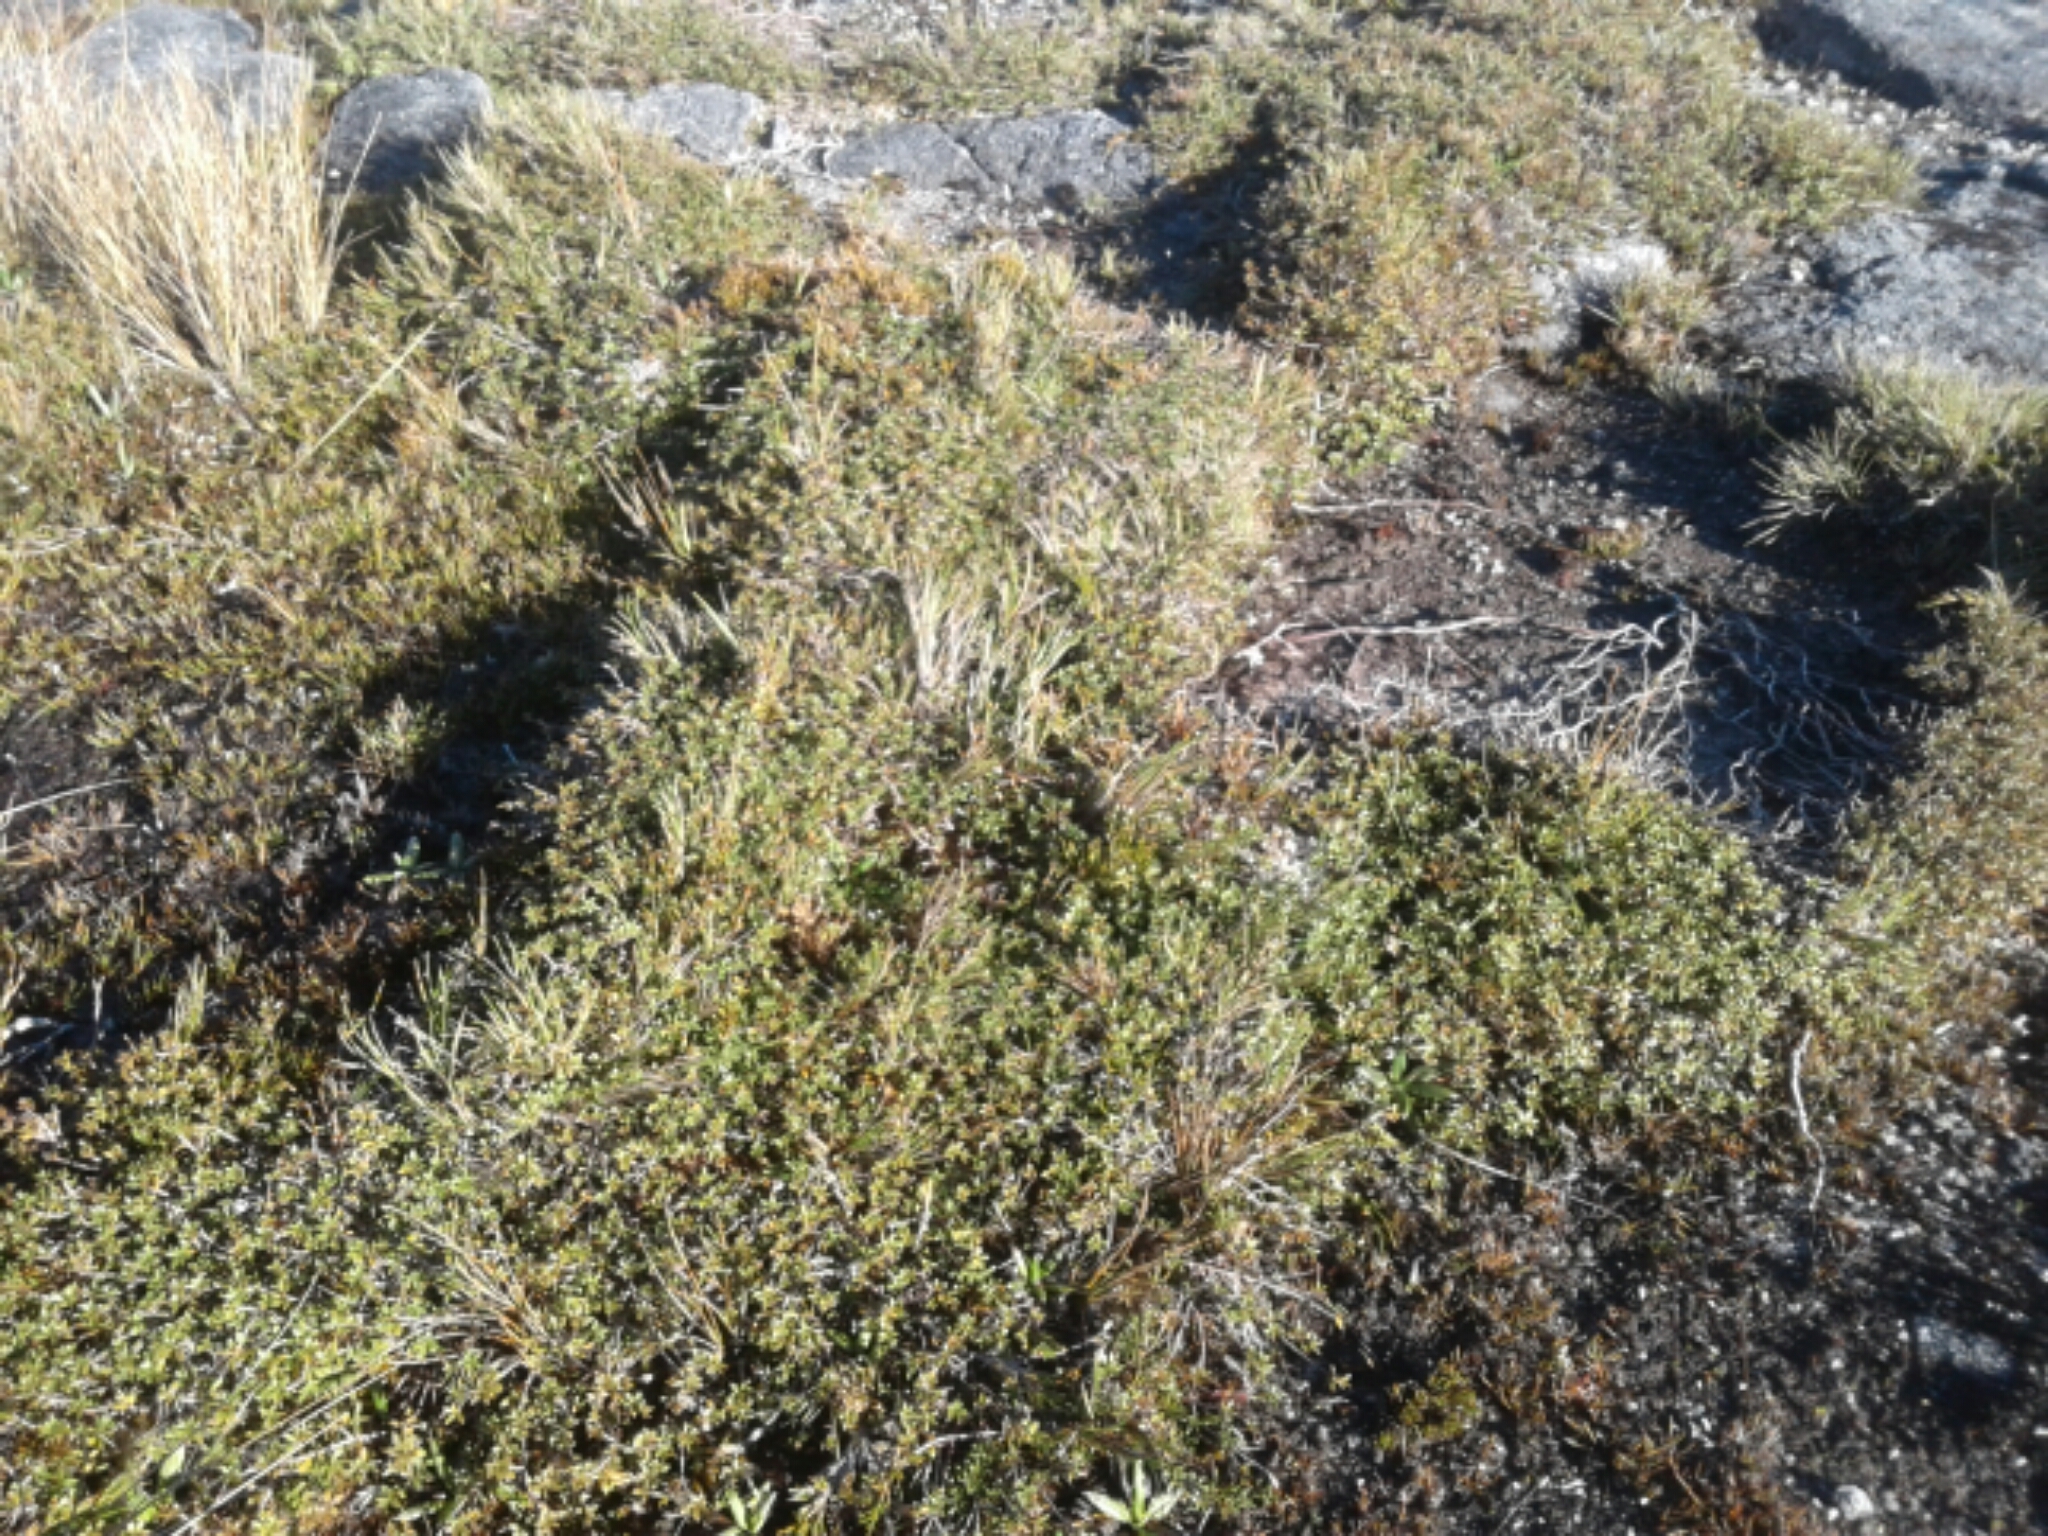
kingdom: Plantae
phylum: Tracheophyta
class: Magnoliopsida
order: Myrtales
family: Myrtaceae
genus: Leptospermum
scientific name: Leptospermum scoparium
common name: Broom tea-tree
